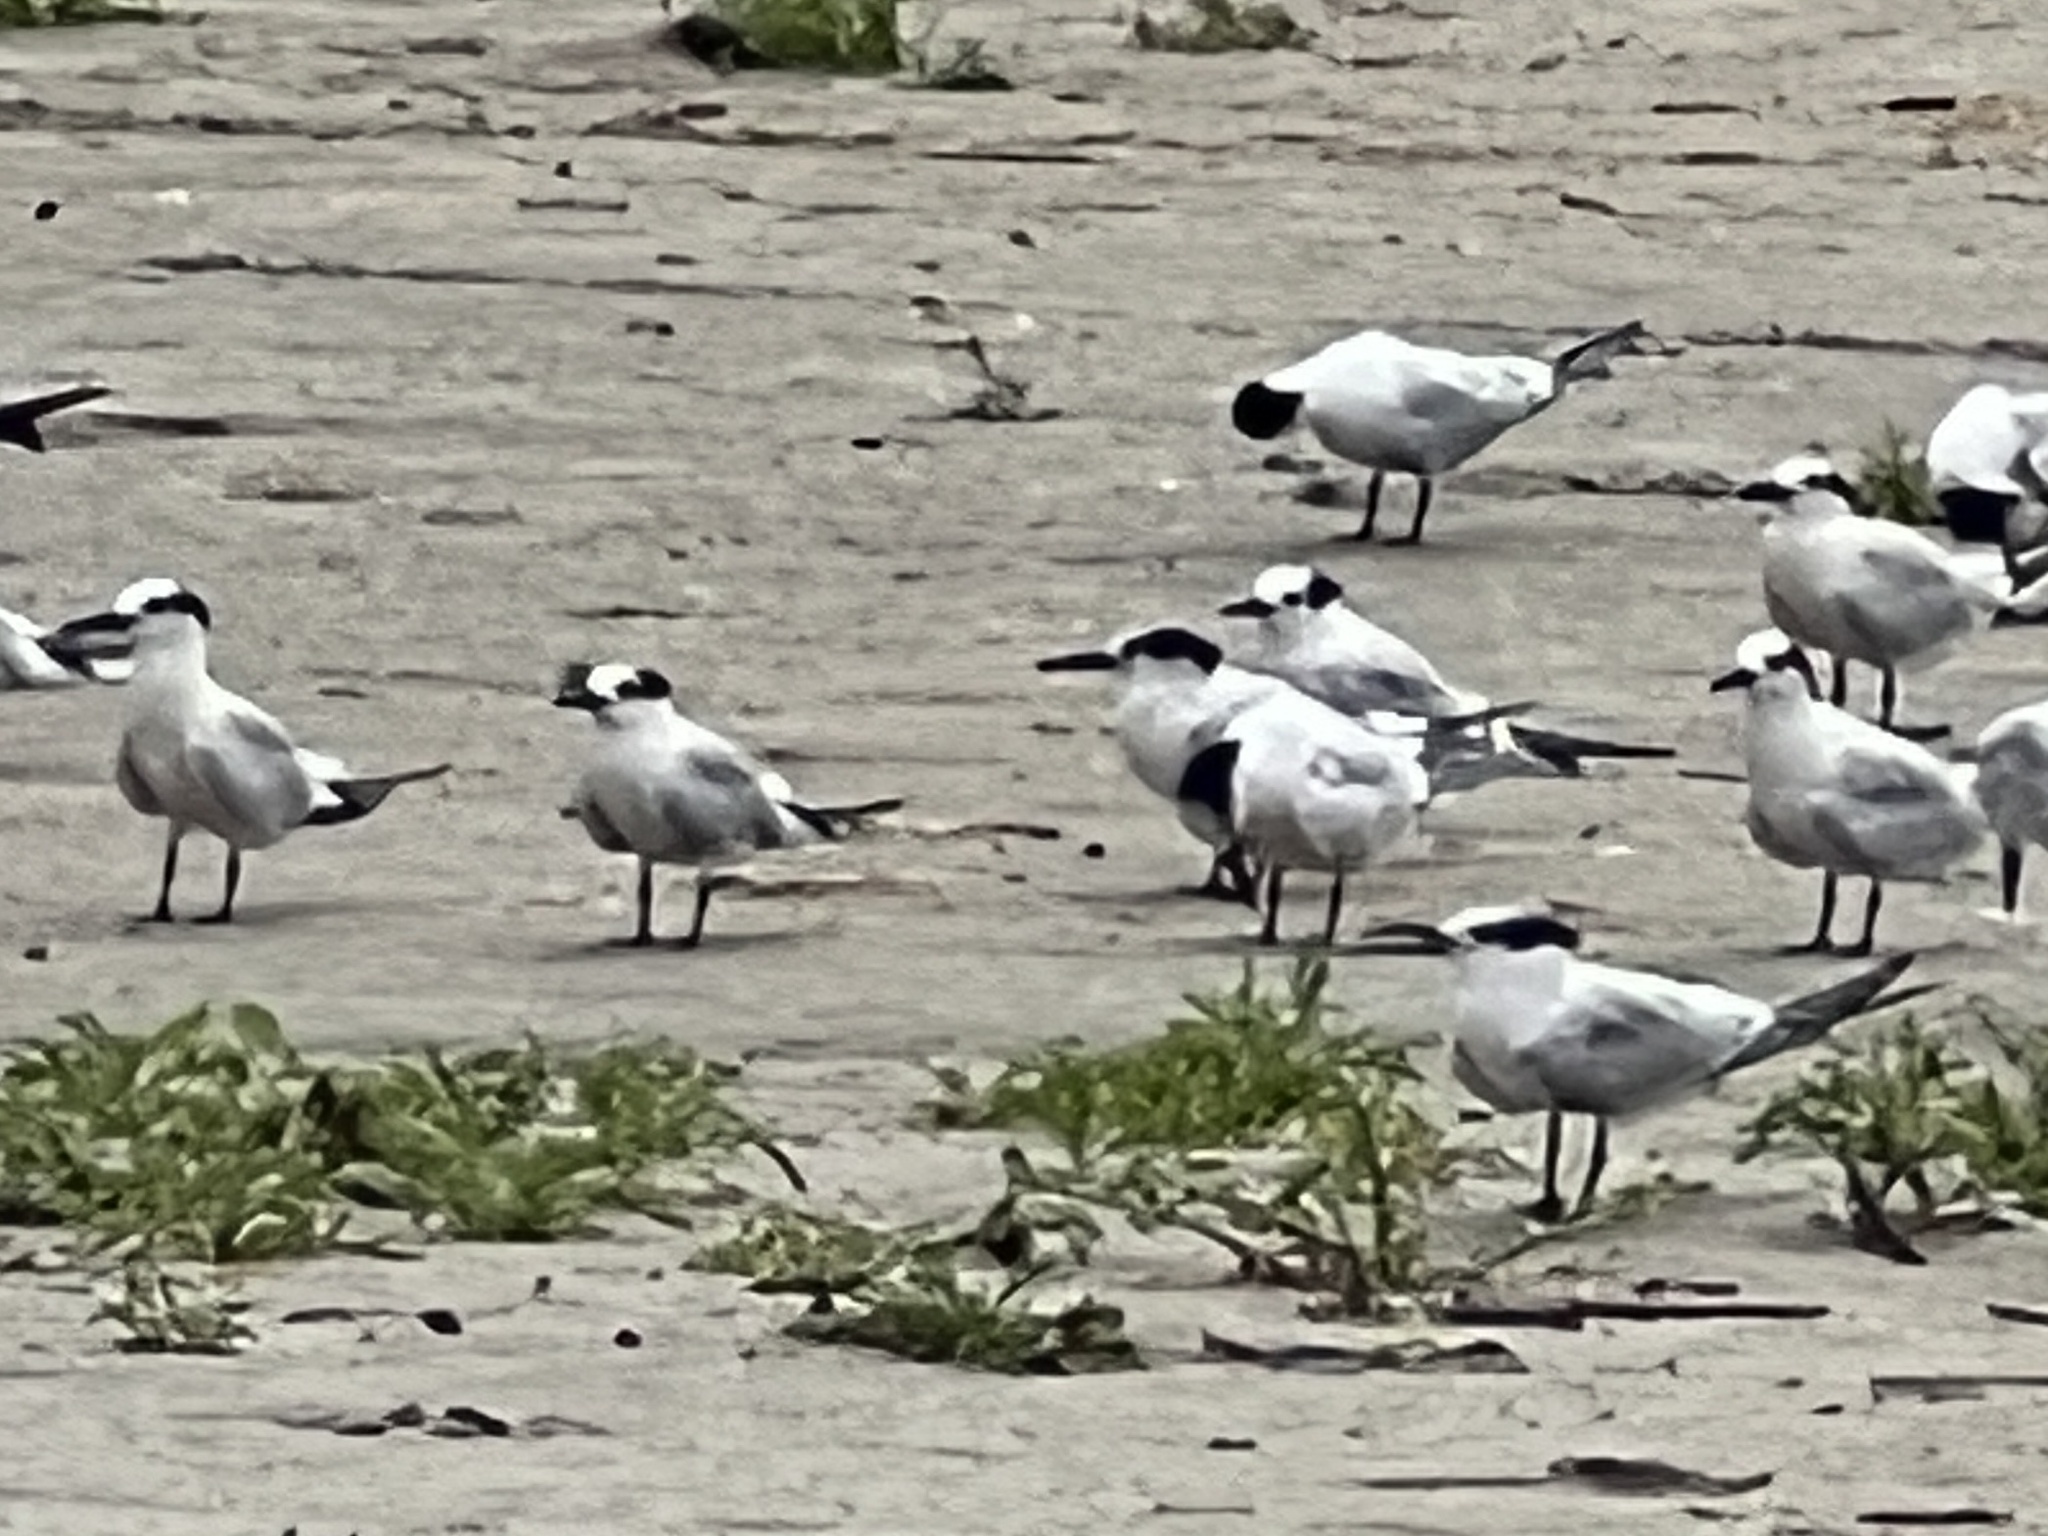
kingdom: Animalia
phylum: Chordata
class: Aves
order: Charadriiformes
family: Laridae
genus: Thalasseus
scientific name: Thalasseus sandvicensis
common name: Sandwich tern
